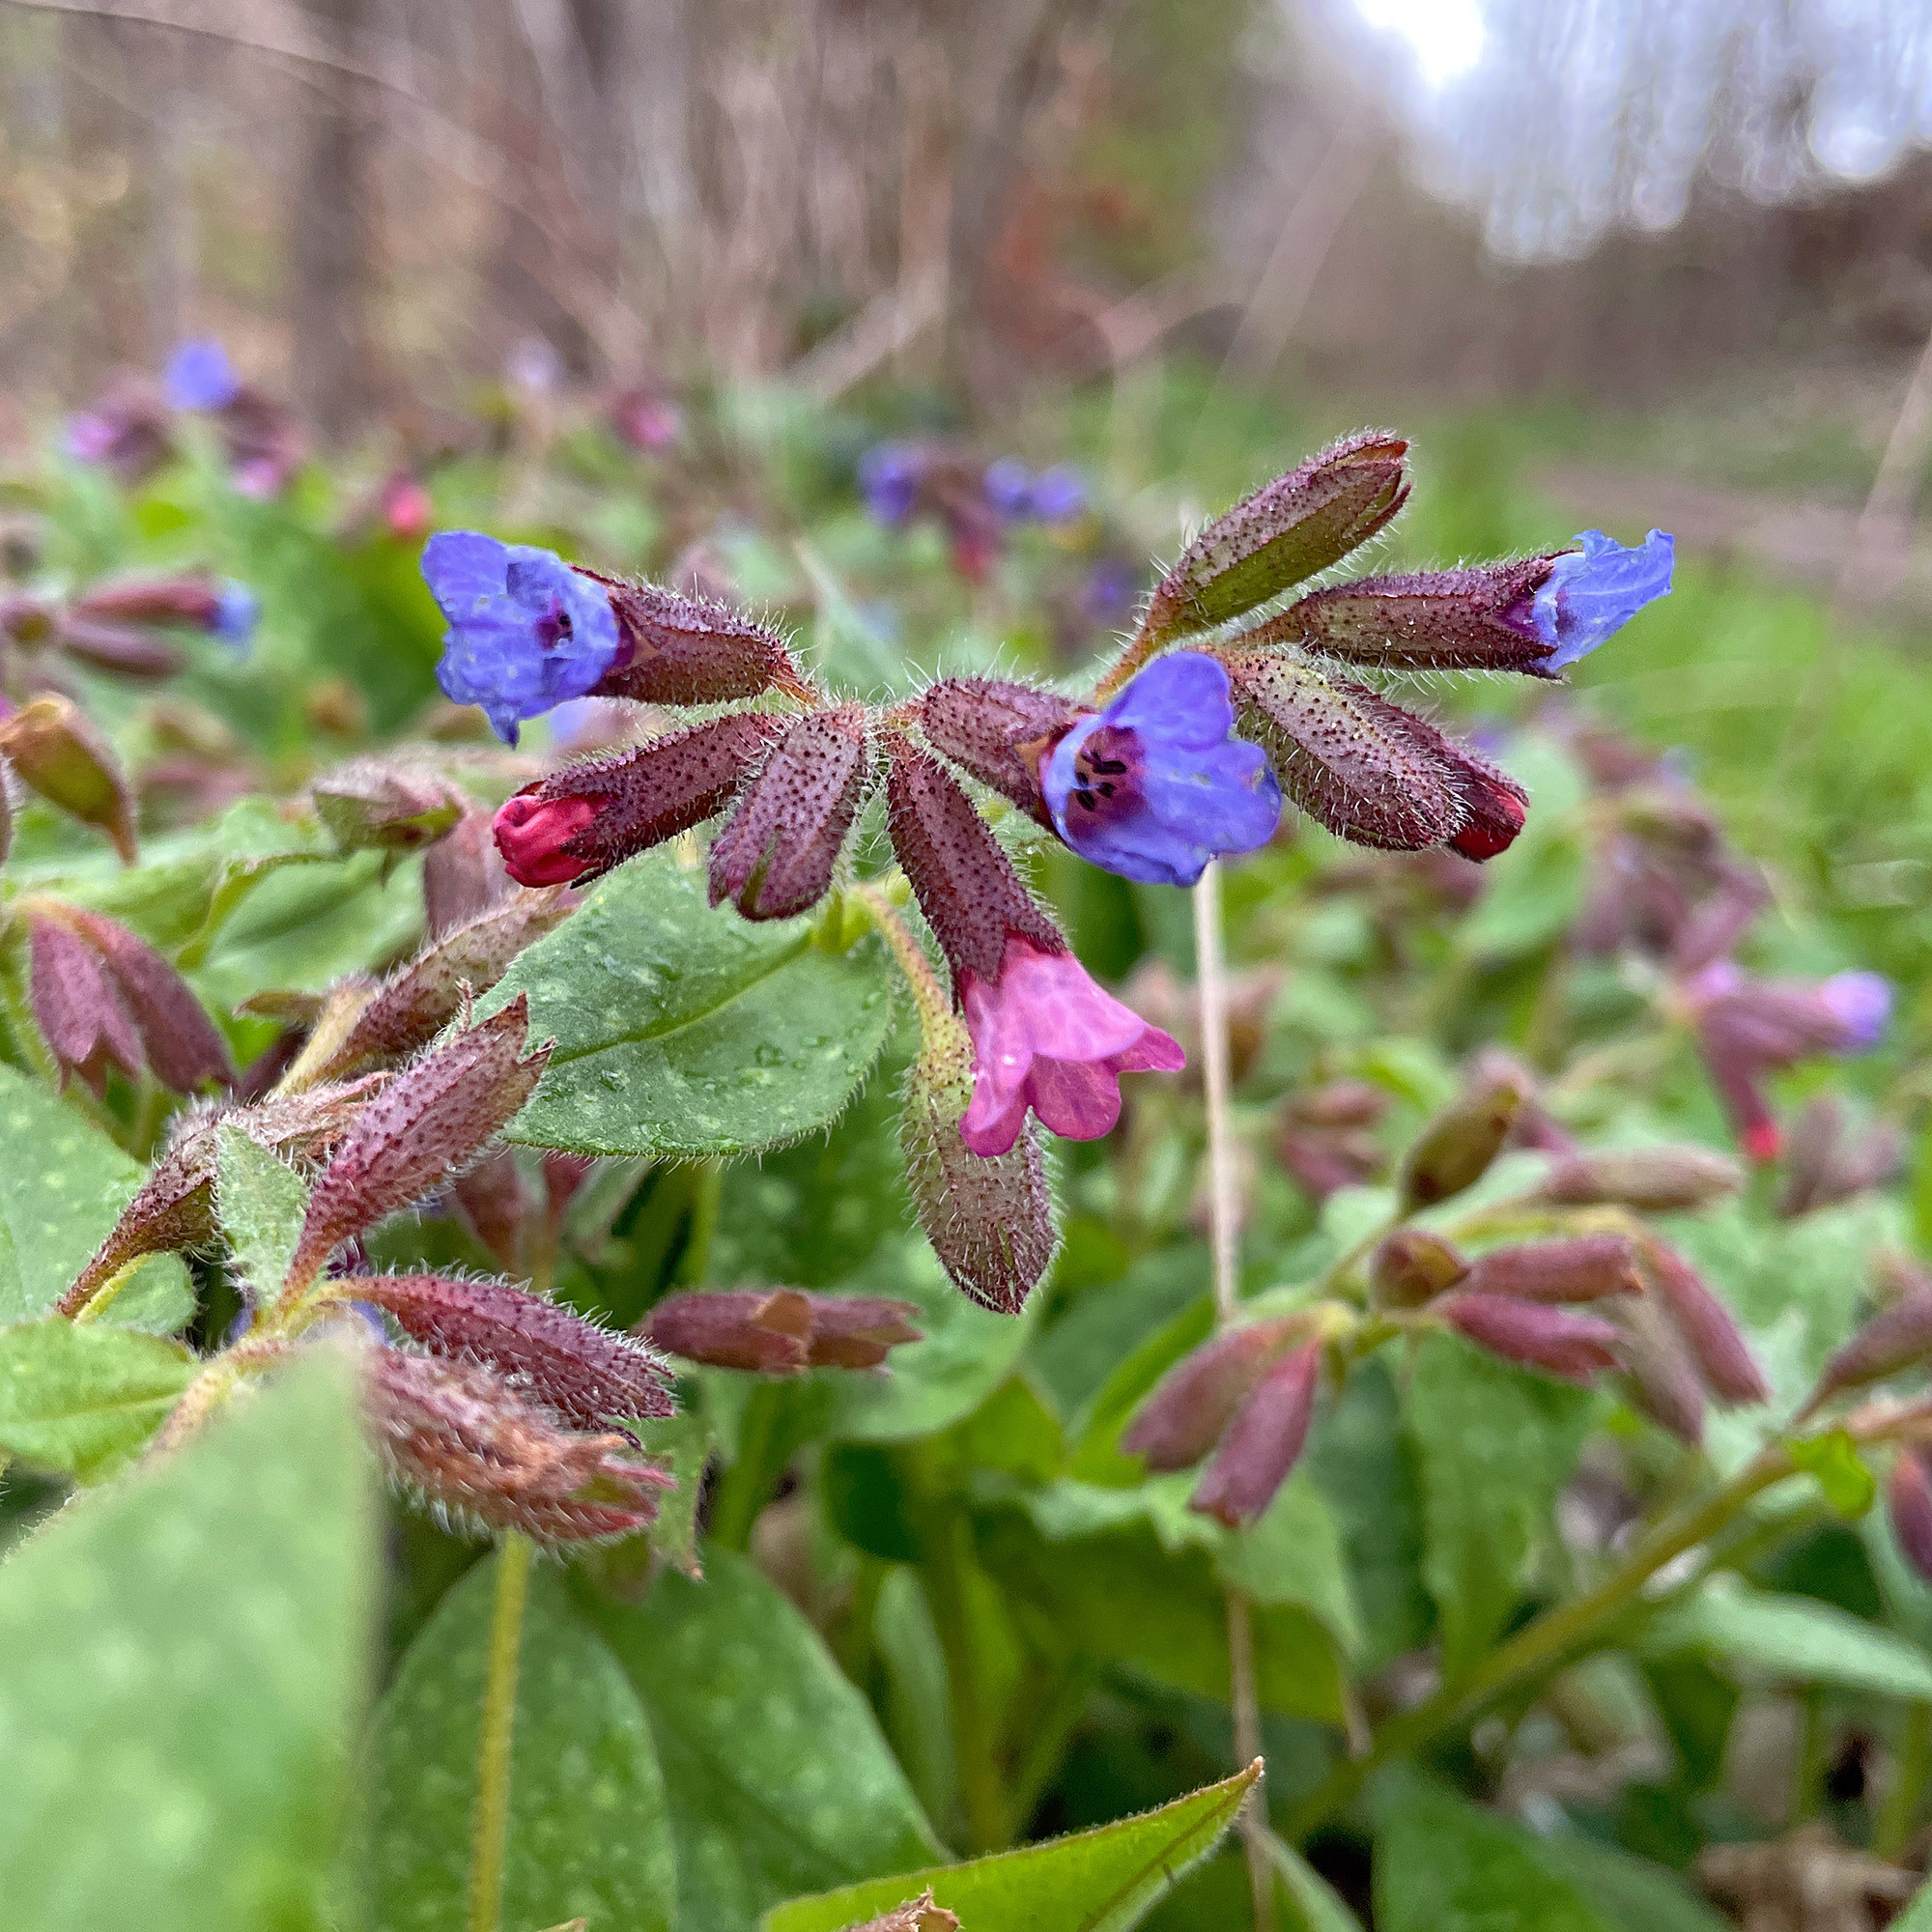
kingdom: Plantae
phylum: Tracheophyta
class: Magnoliopsida
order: Boraginales
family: Boraginaceae
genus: Pulmonaria
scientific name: Pulmonaria officinalis
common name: Lungwort
